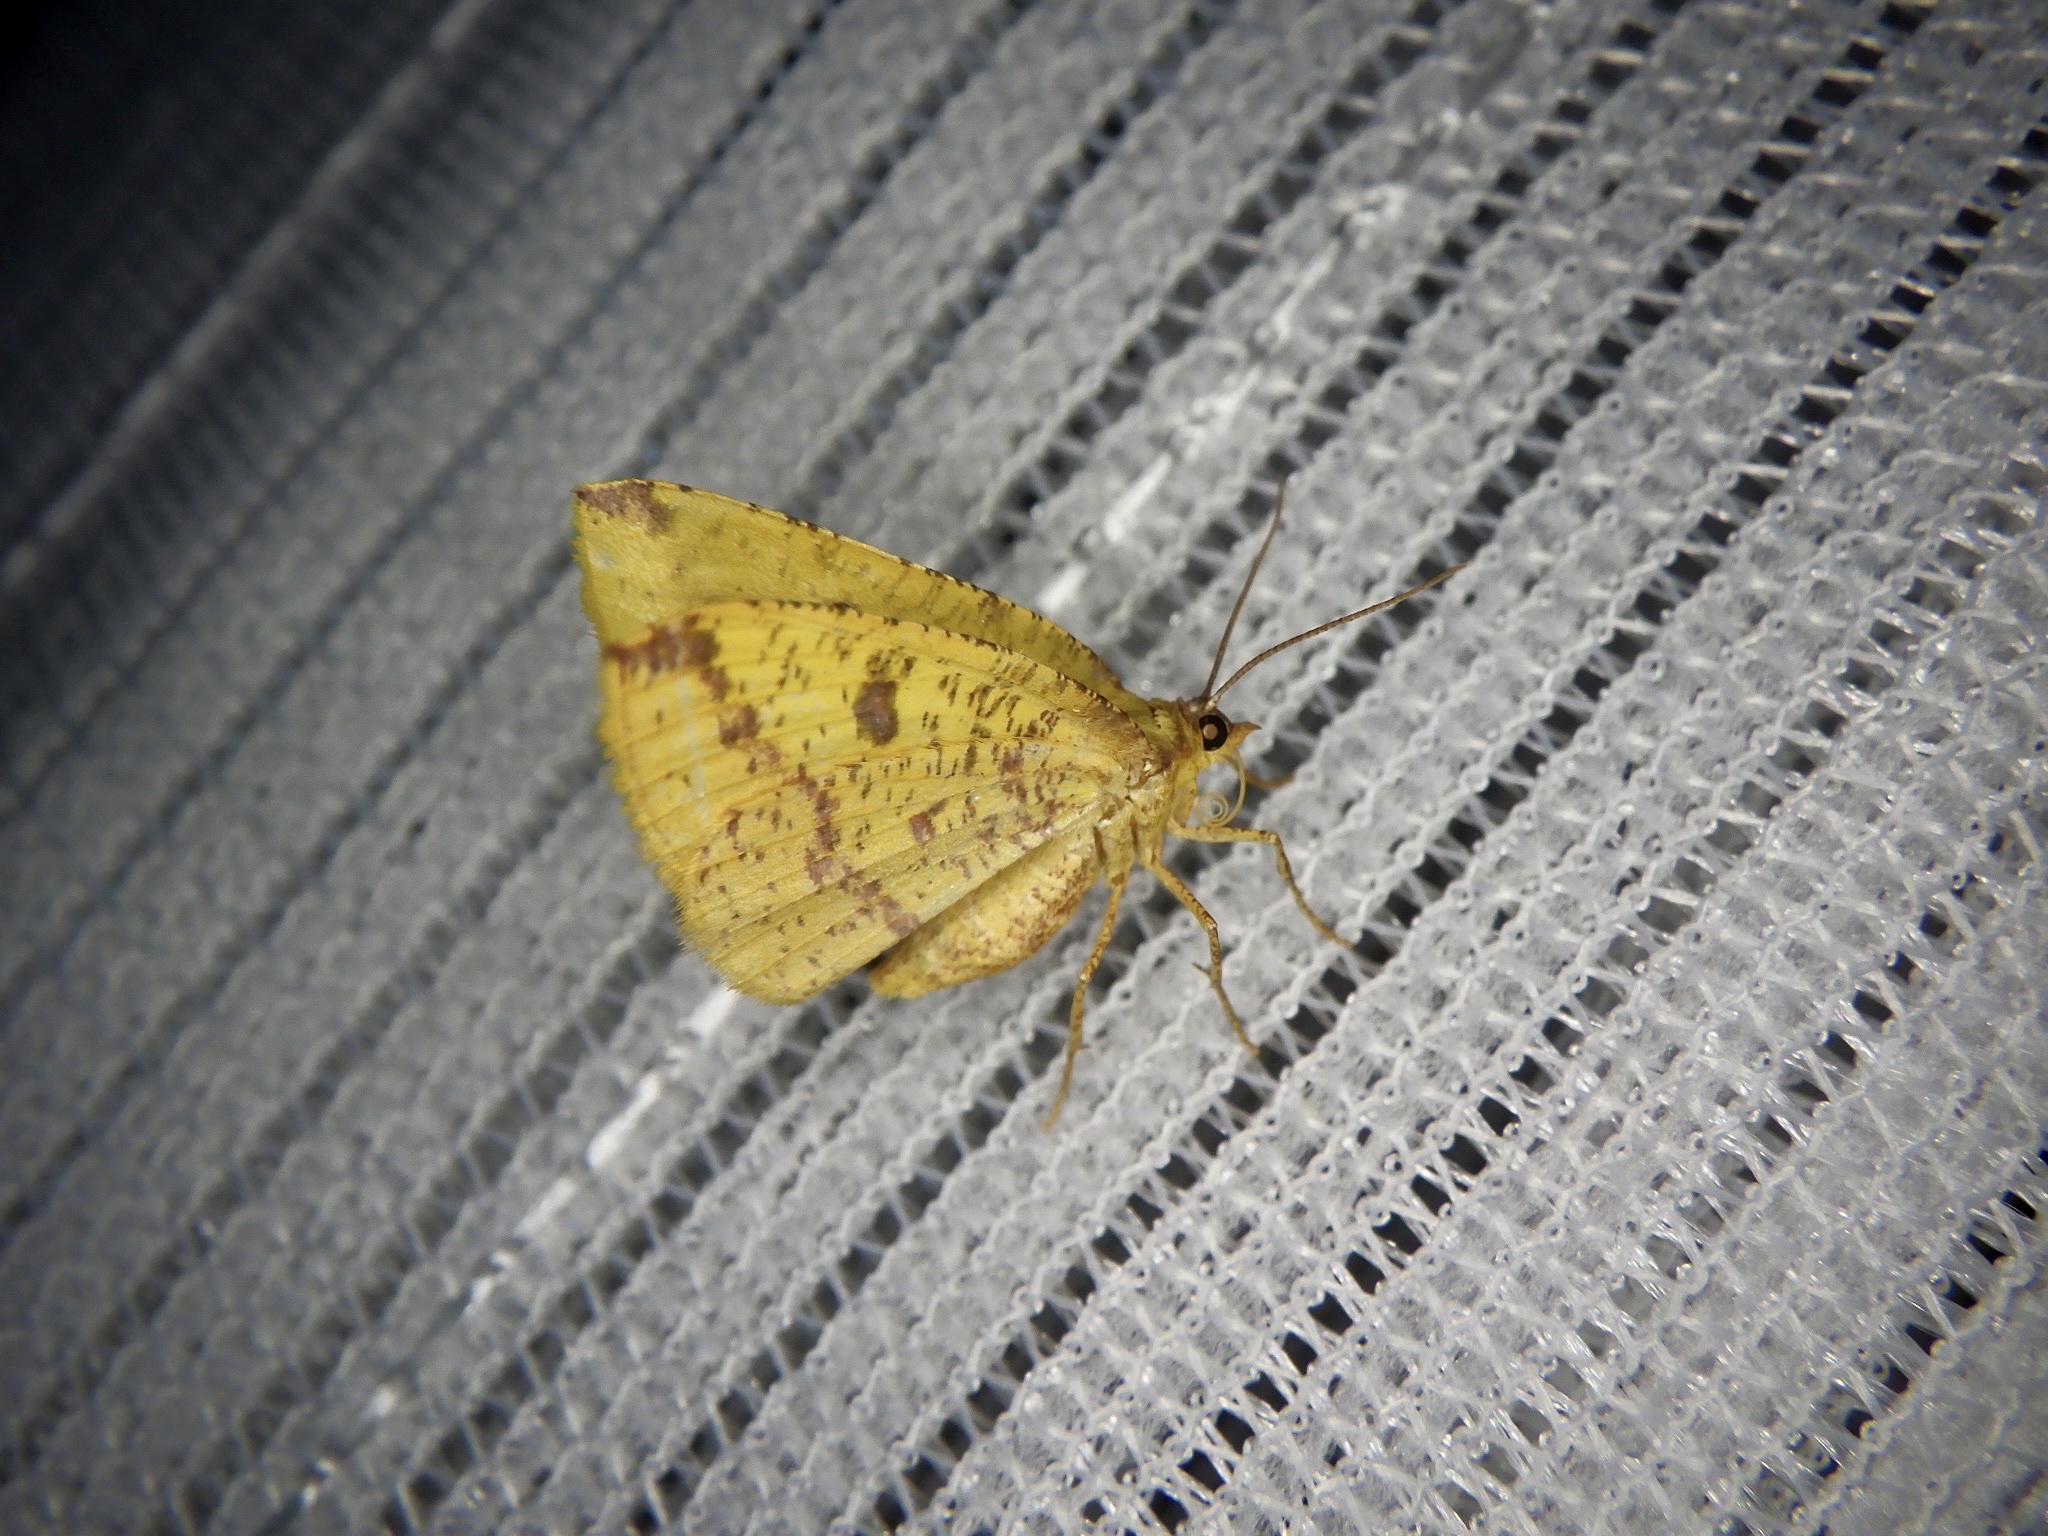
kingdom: Animalia
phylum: Arthropoda
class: Insecta
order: Lepidoptera
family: Geometridae
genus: Heterolocha
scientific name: Heterolocha aristonaria
